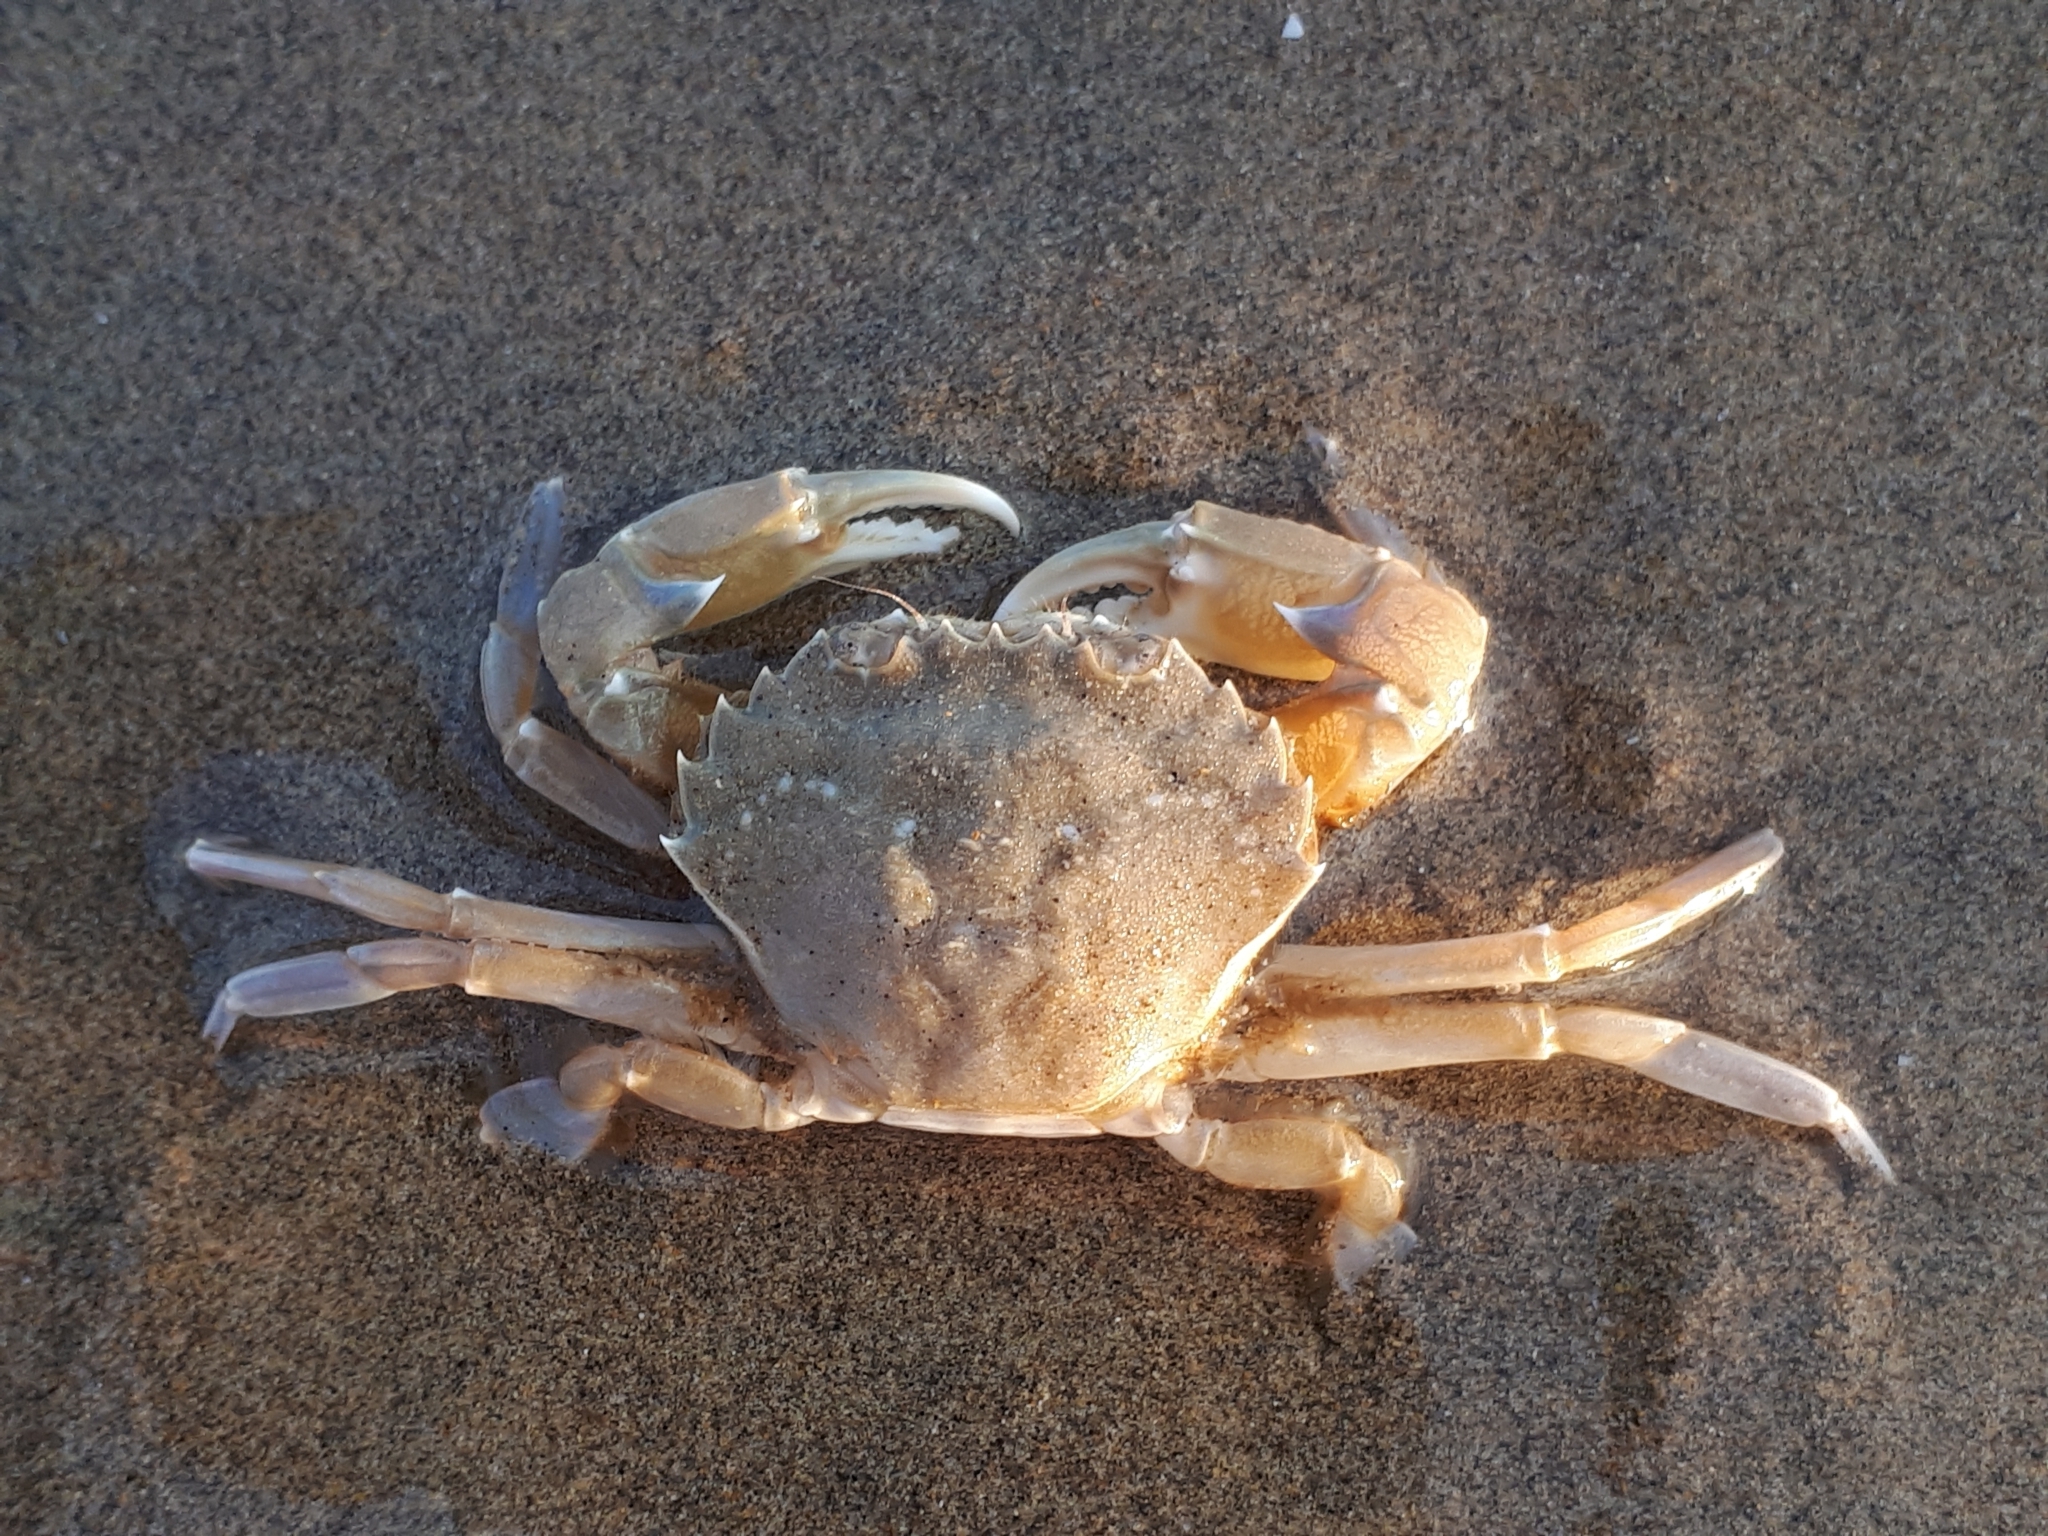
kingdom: Animalia
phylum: Arthropoda
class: Malacostraca
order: Decapoda
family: Polybiidae
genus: Liocarcinus
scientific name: Liocarcinus vernalis
